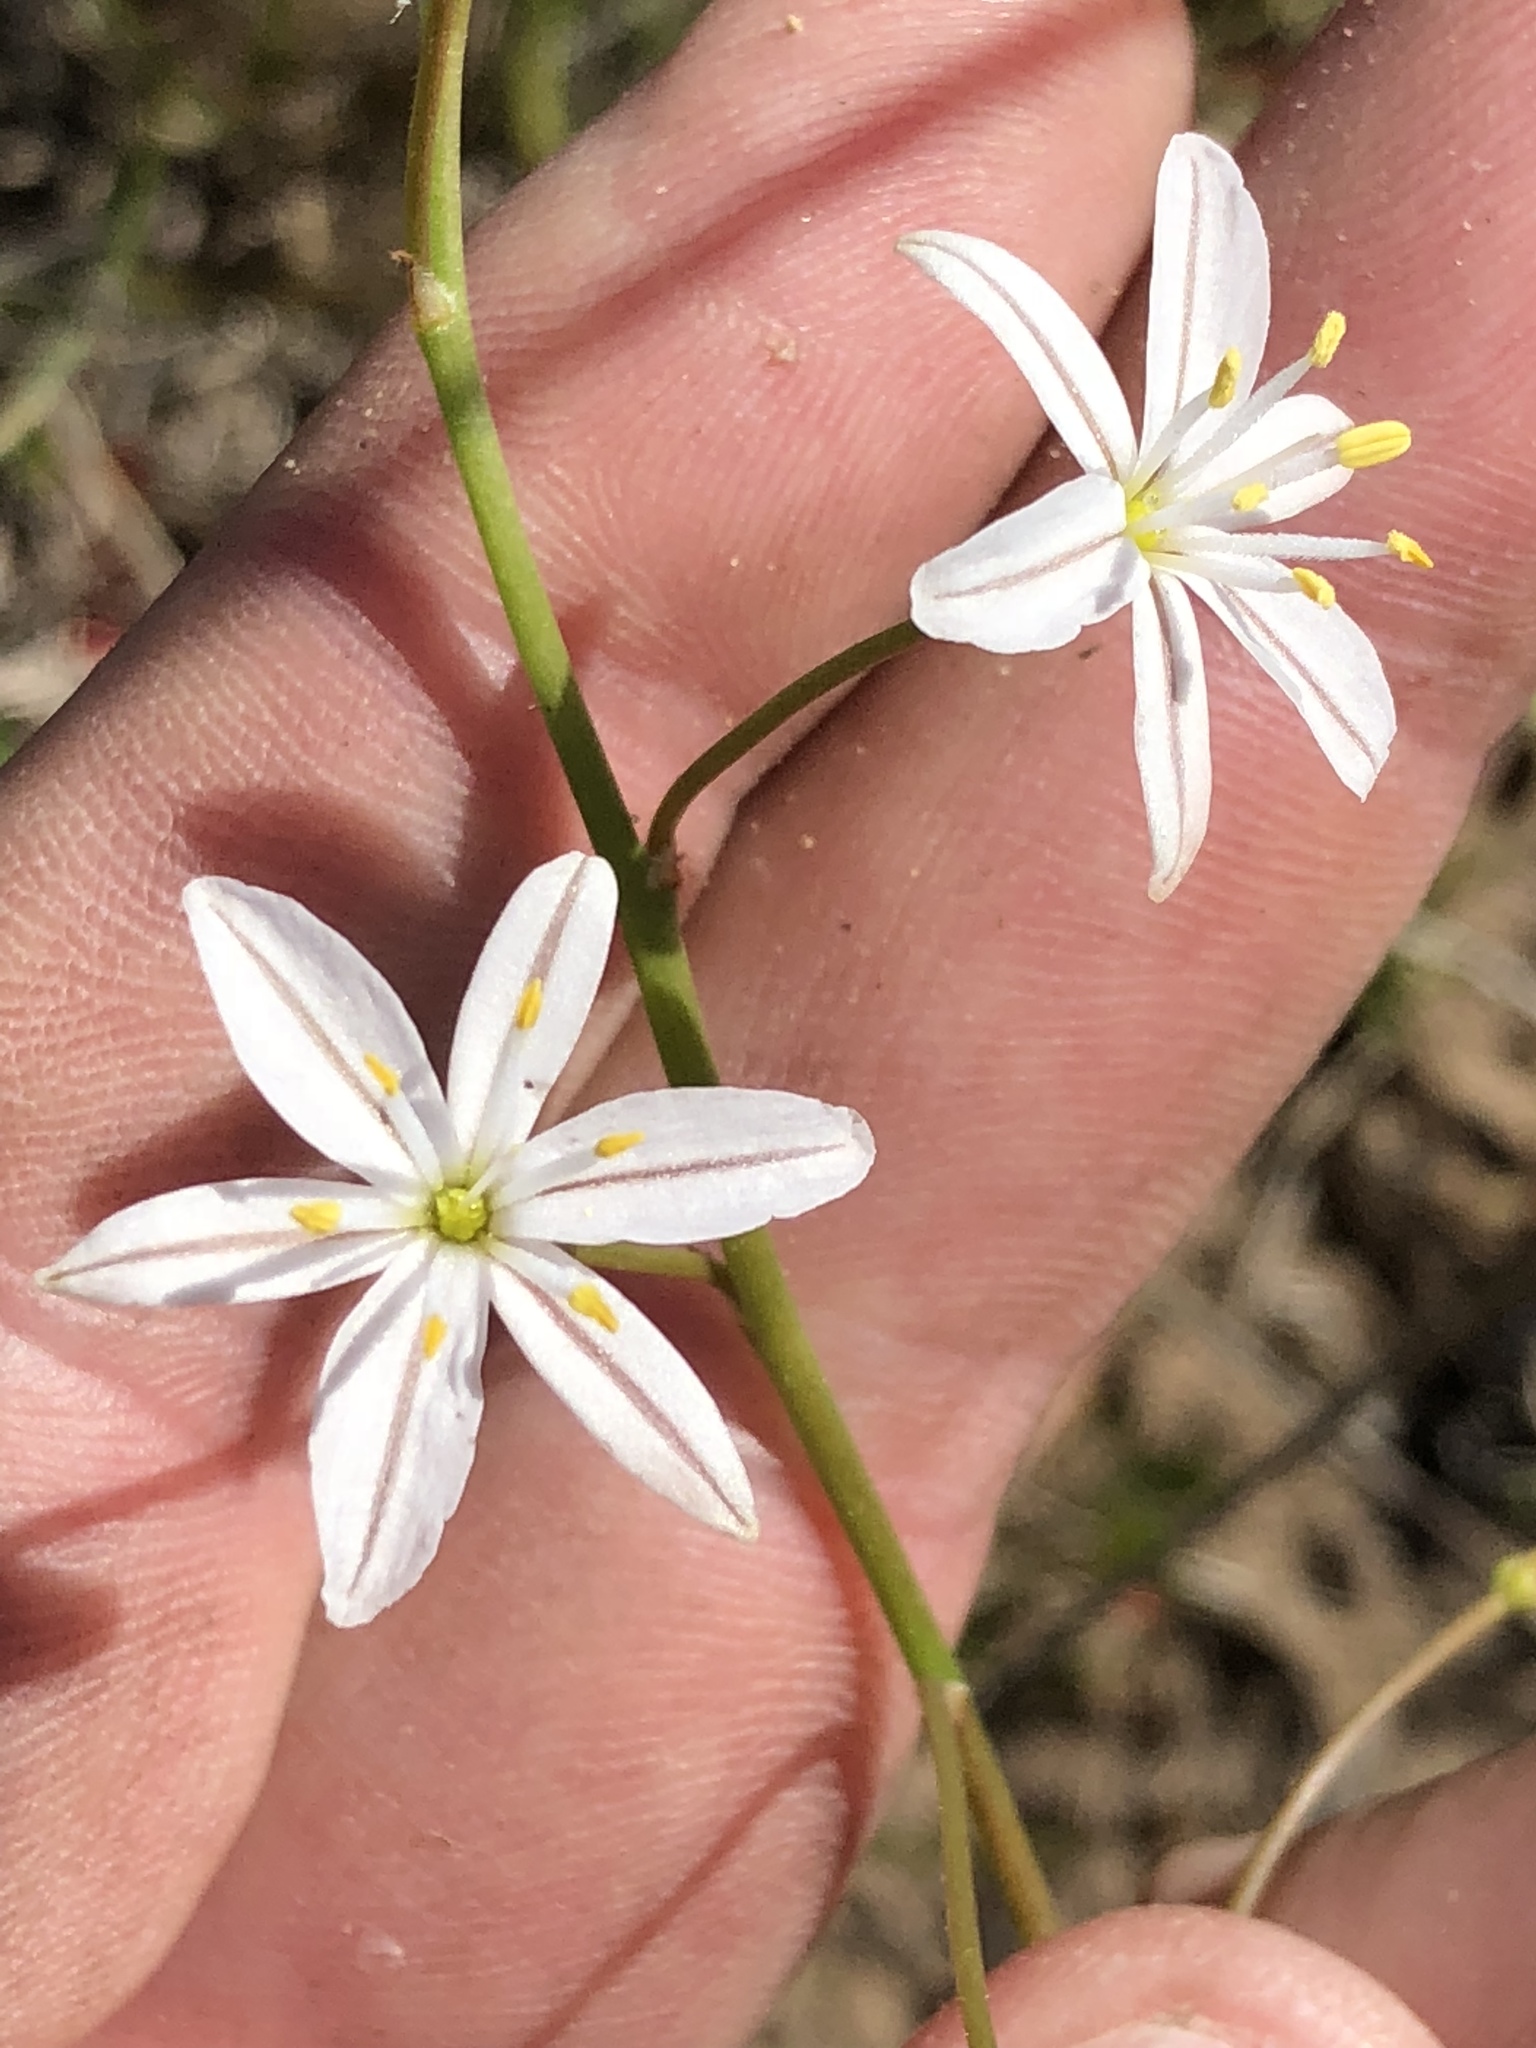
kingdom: Plantae
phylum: Tracheophyta
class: Liliopsida
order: Asparagales
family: Asphodelaceae
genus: Trachyandra
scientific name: Trachyandra affinis
